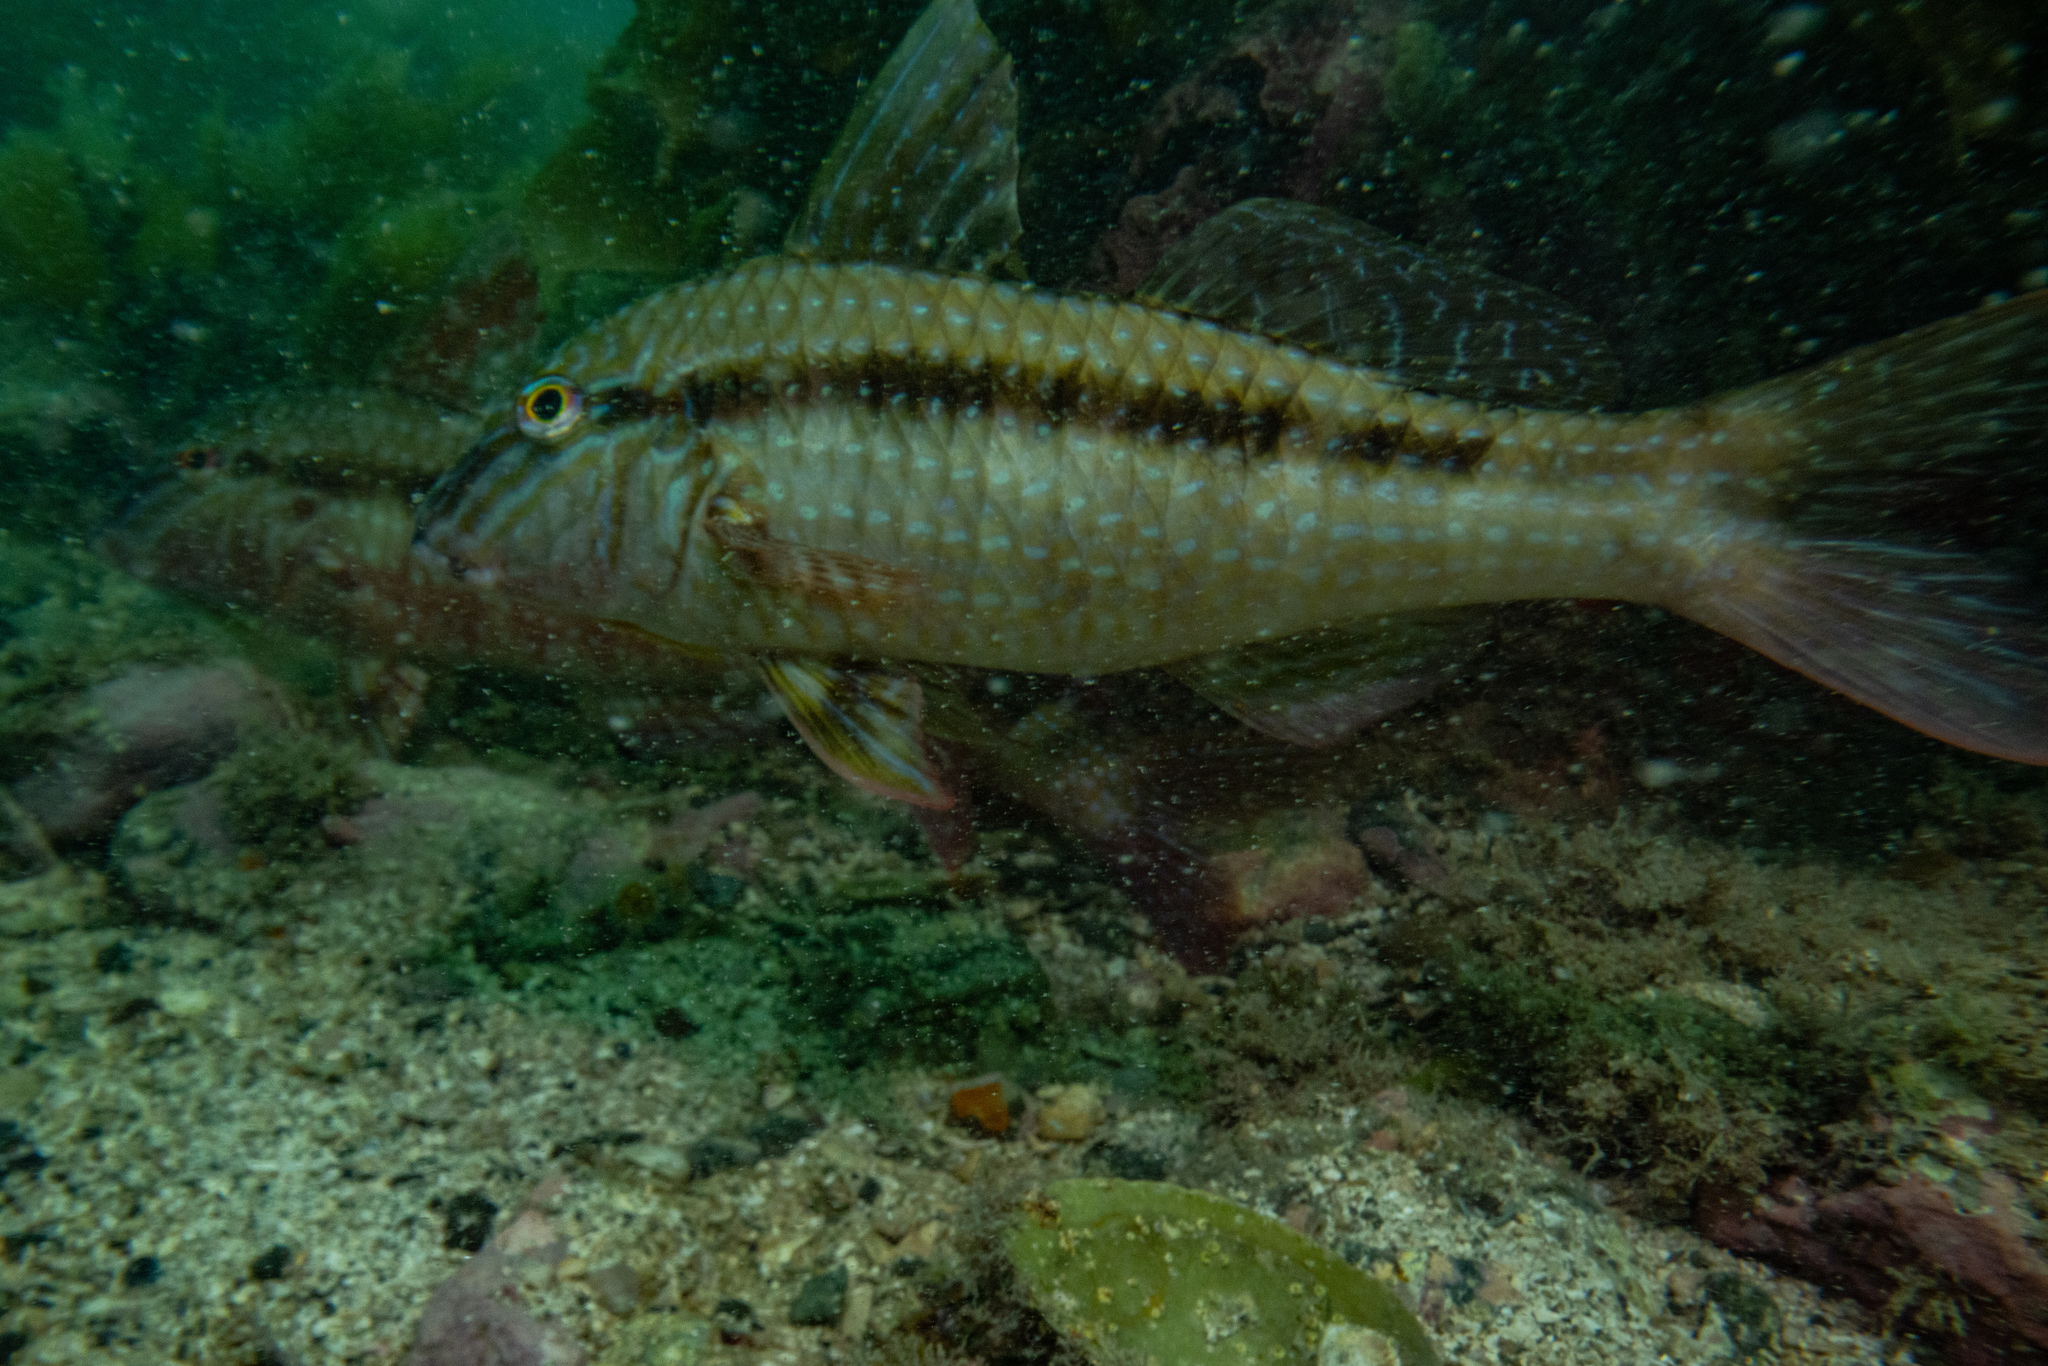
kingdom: Animalia
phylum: Chordata
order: Perciformes
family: Mullidae
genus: Upeneichthys
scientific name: Upeneichthys lineatus
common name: Red mullet
